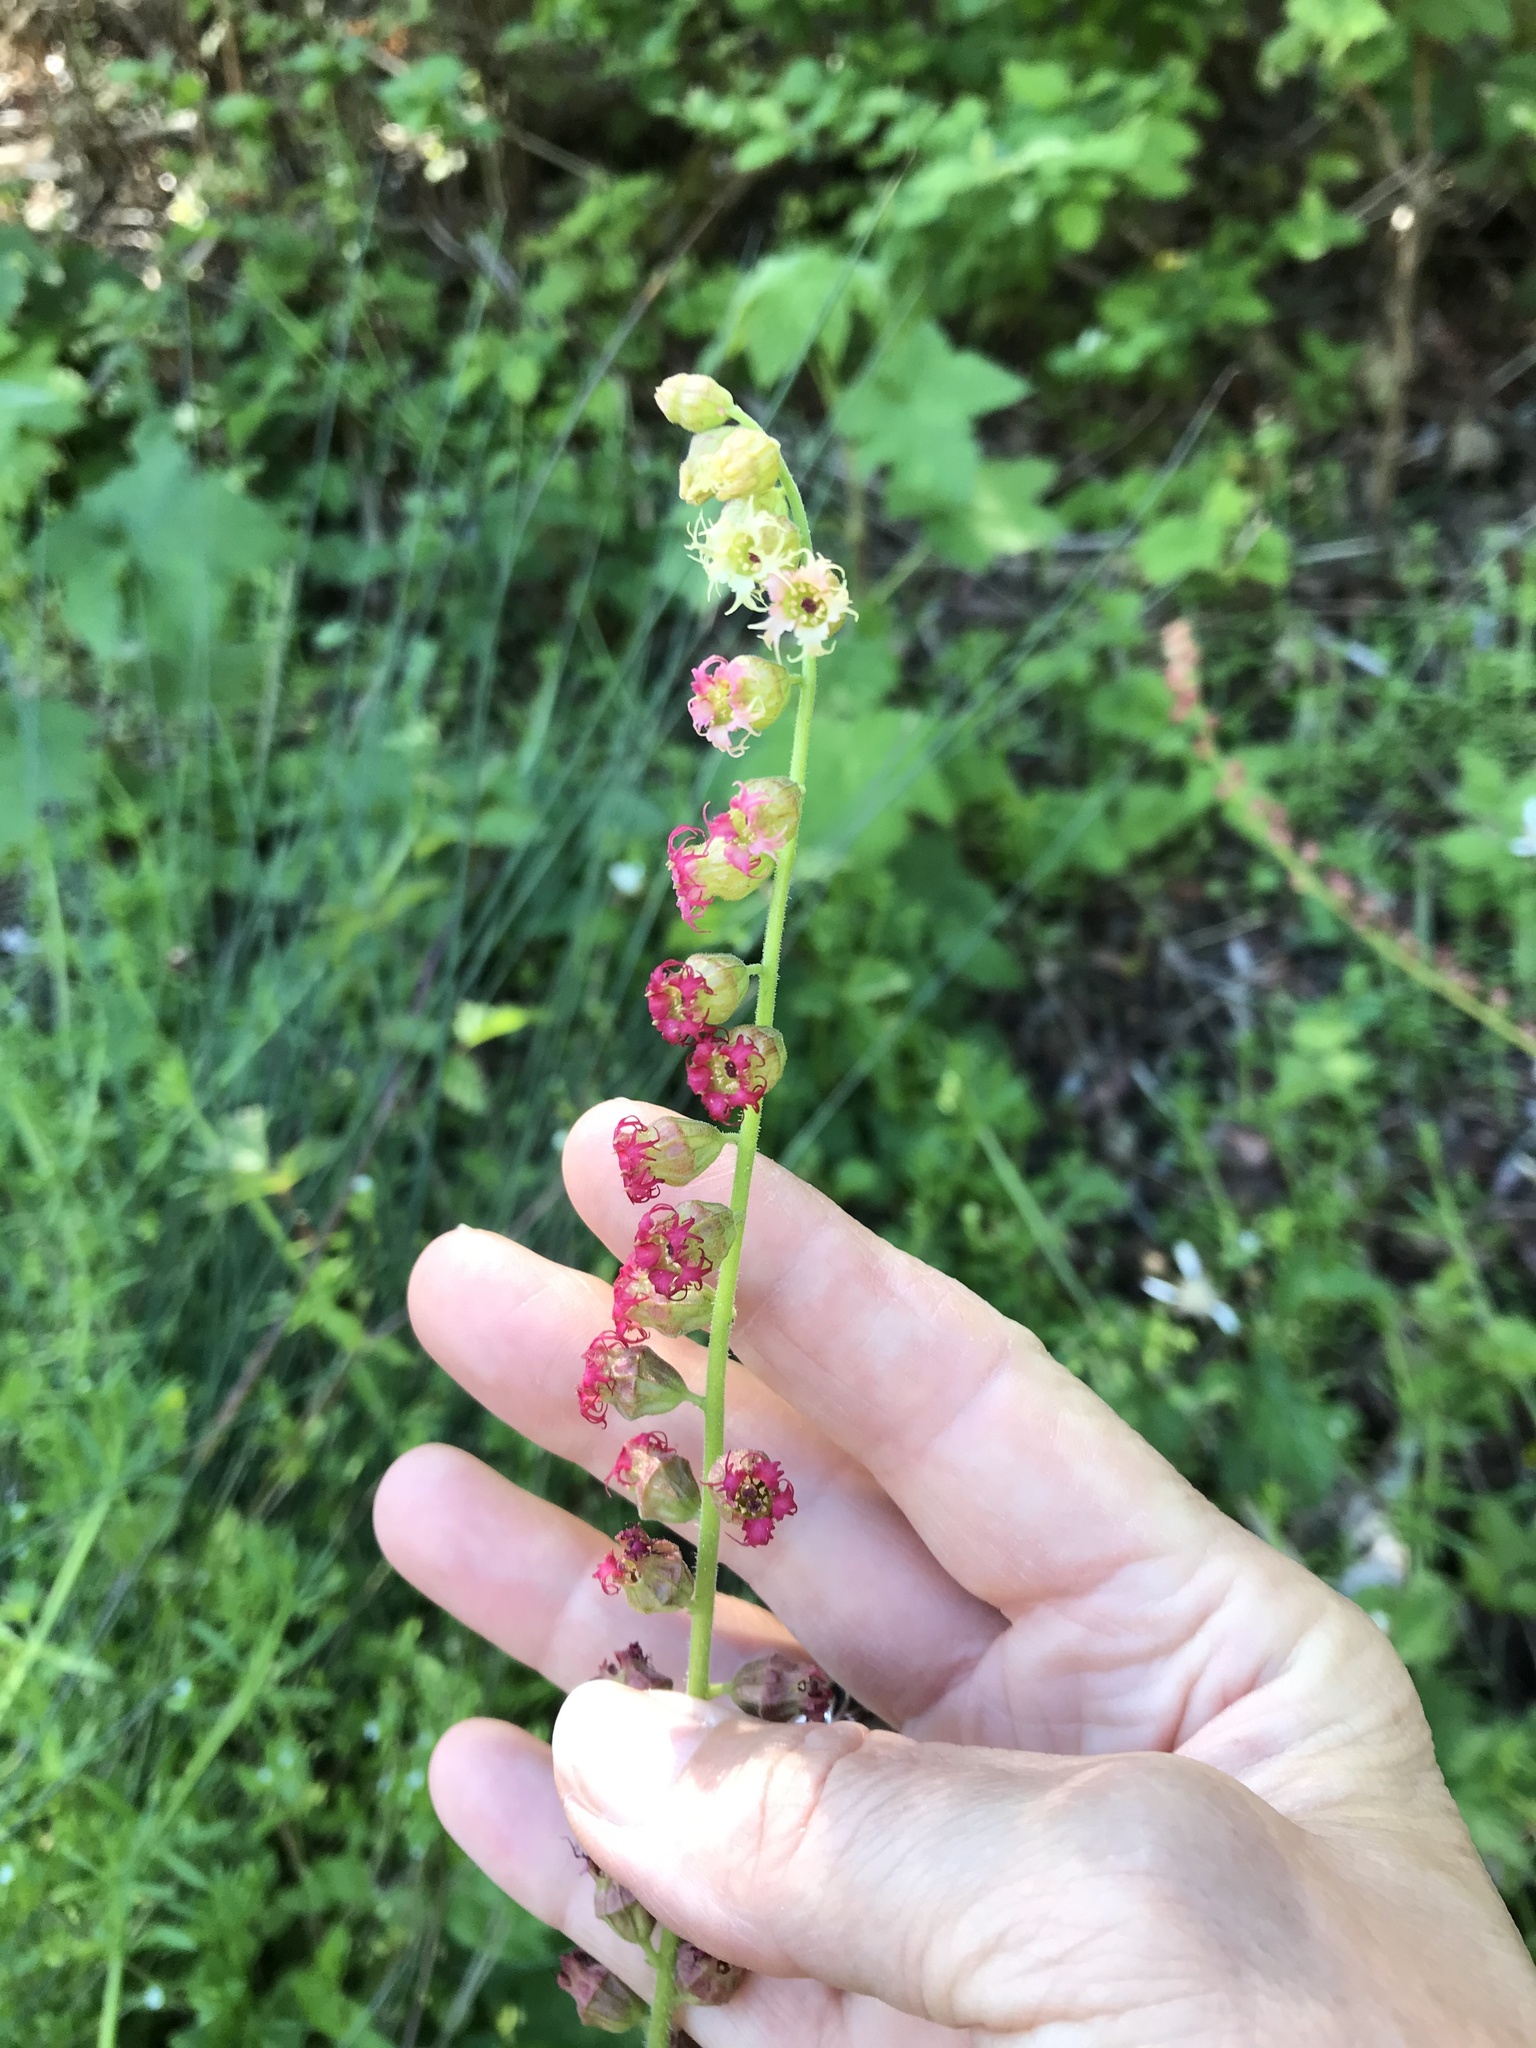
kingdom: Plantae
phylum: Tracheophyta
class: Magnoliopsida
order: Saxifragales
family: Saxifragaceae
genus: Tellima
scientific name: Tellima grandiflora
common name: Fringecups
